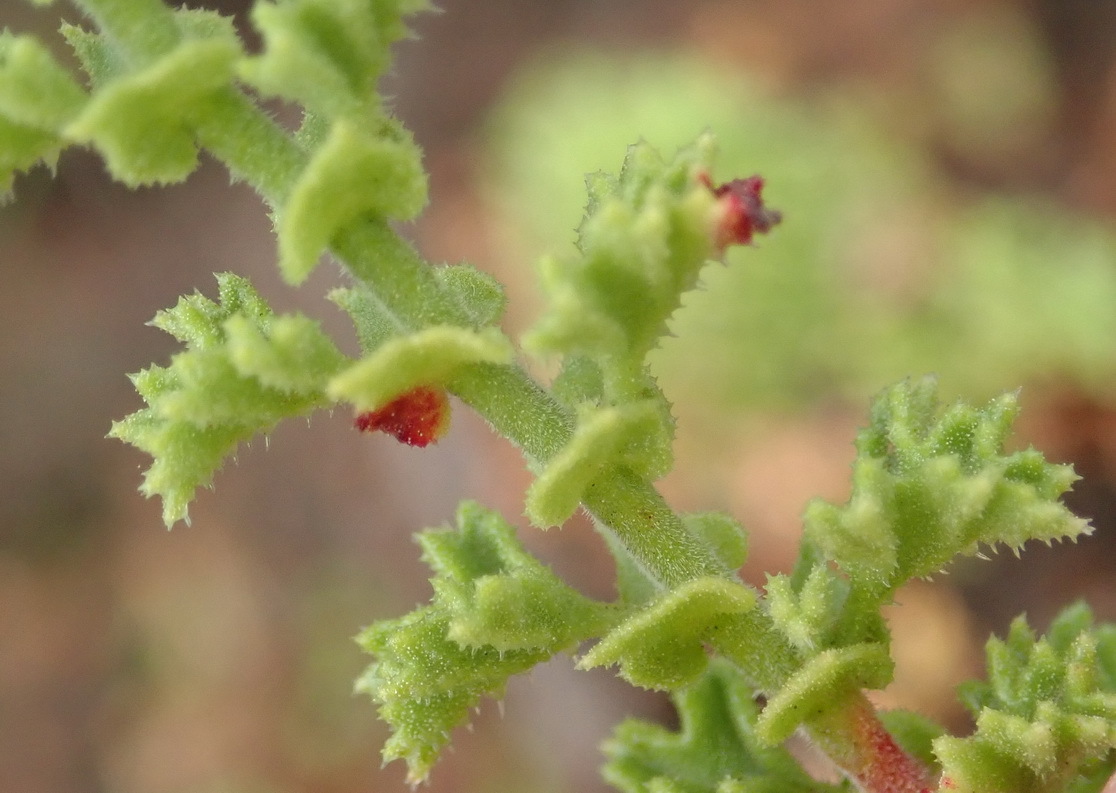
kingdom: Plantae
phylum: Tracheophyta
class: Magnoliopsida
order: Geraniales
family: Geraniaceae
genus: Pelargonium
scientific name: Pelargonium crispum
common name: Crisped-leaf pelargonium
